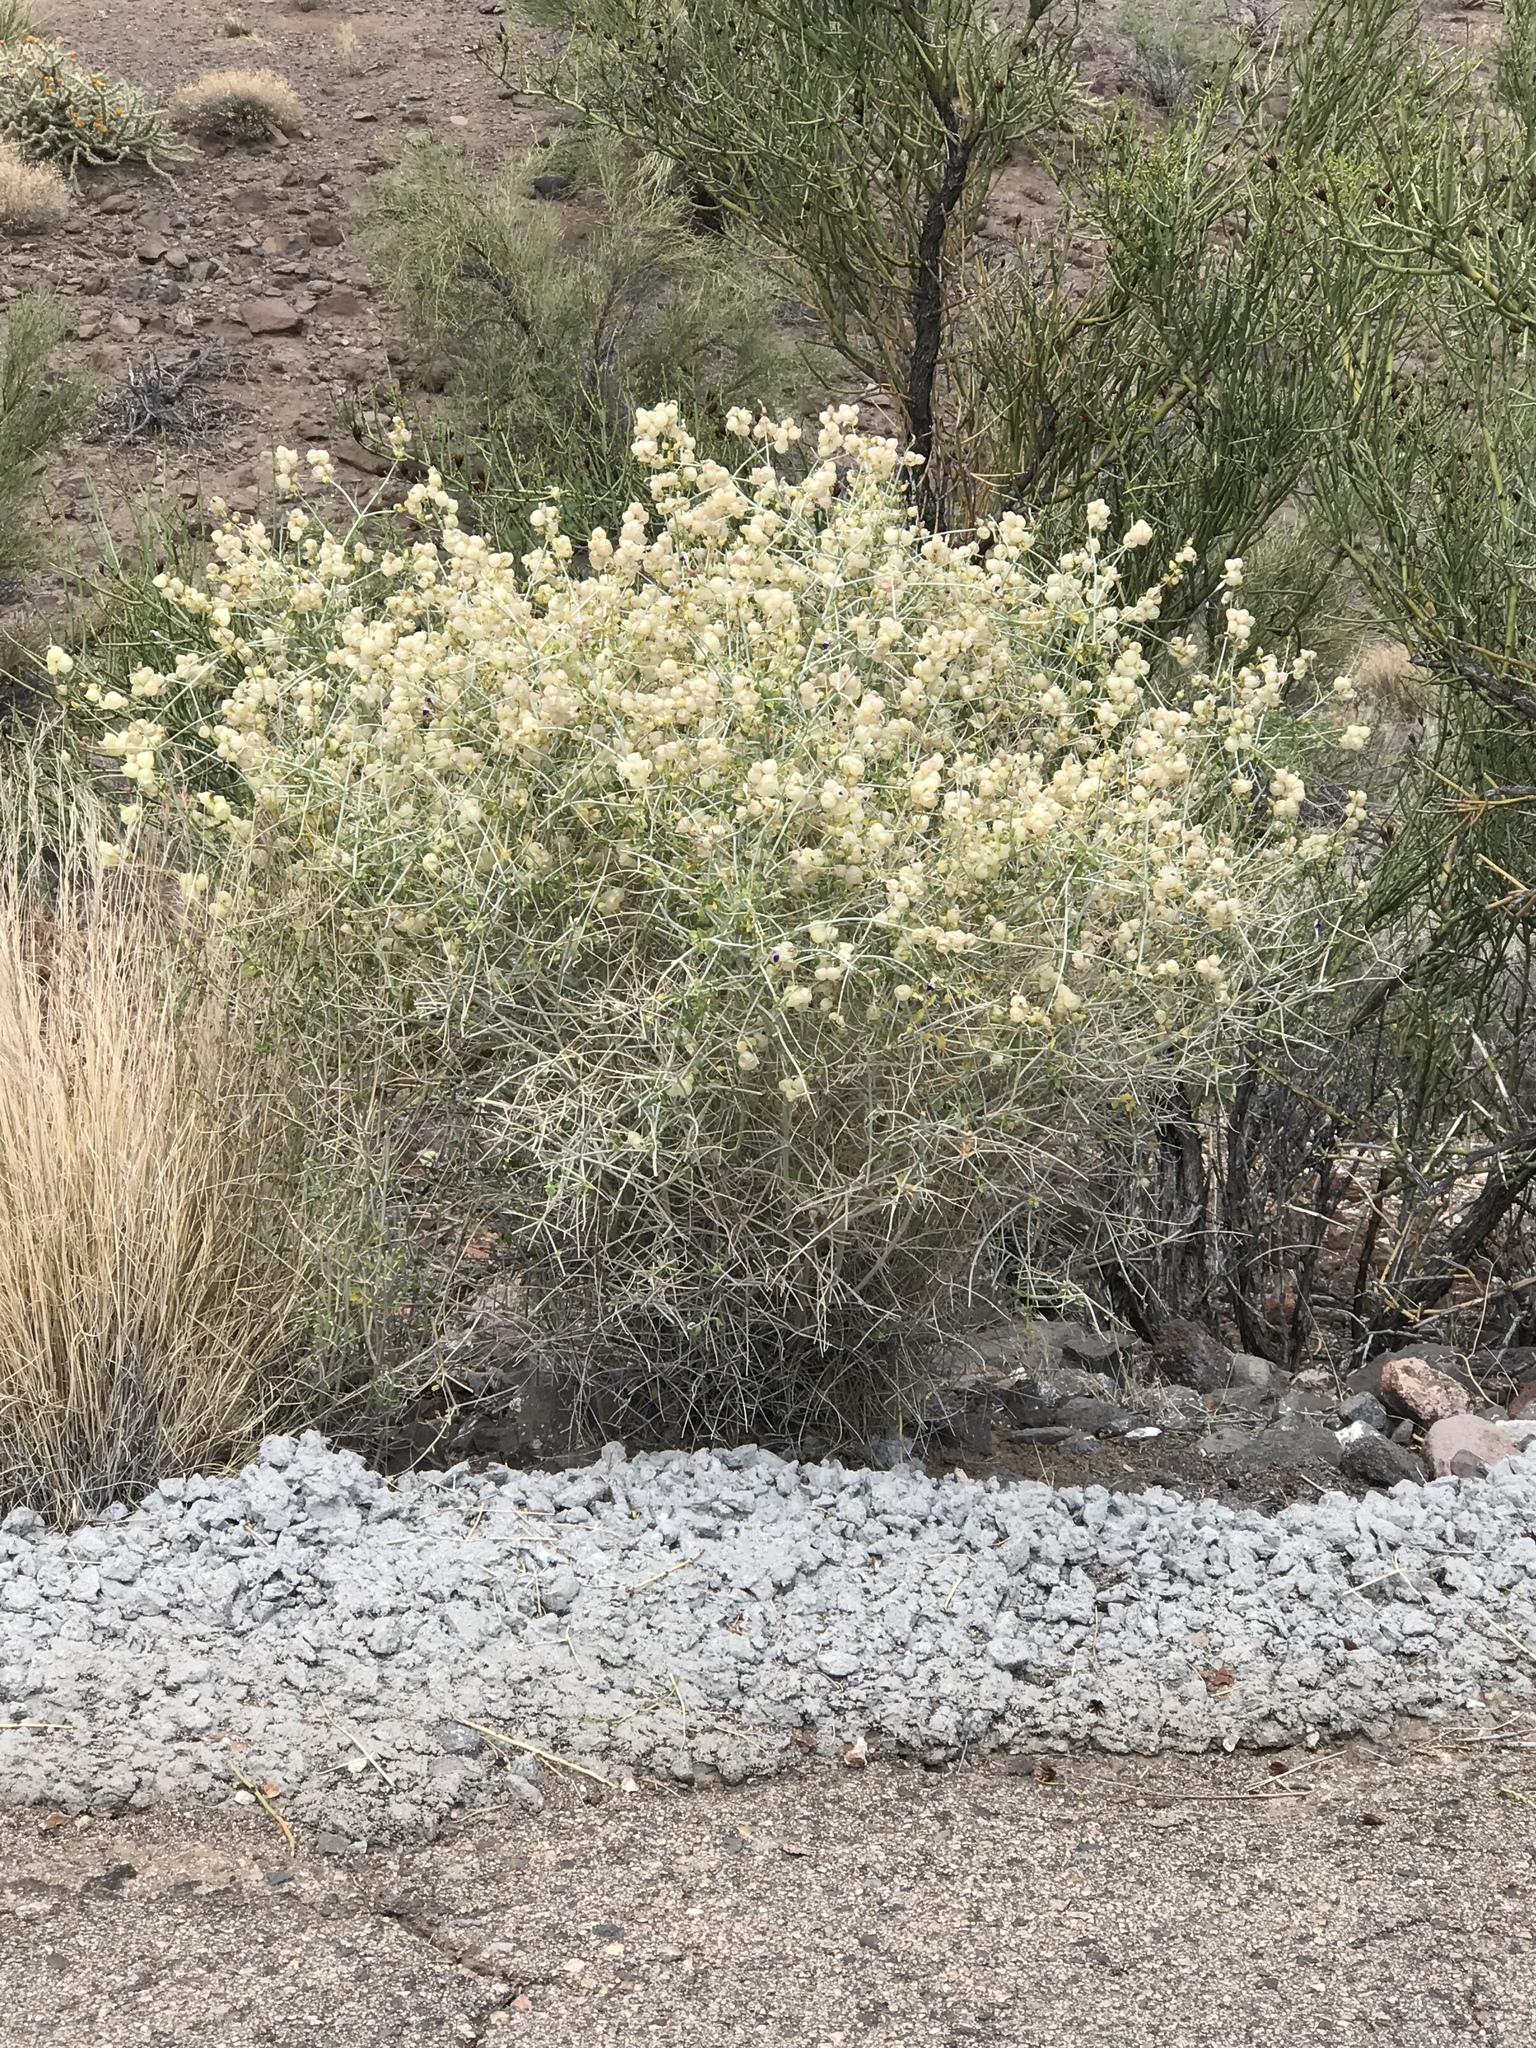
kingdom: Plantae
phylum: Tracheophyta
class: Magnoliopsida
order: Lamiales
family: Lamiaceae
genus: Scutellaria
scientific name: Scutellaria mexicana
